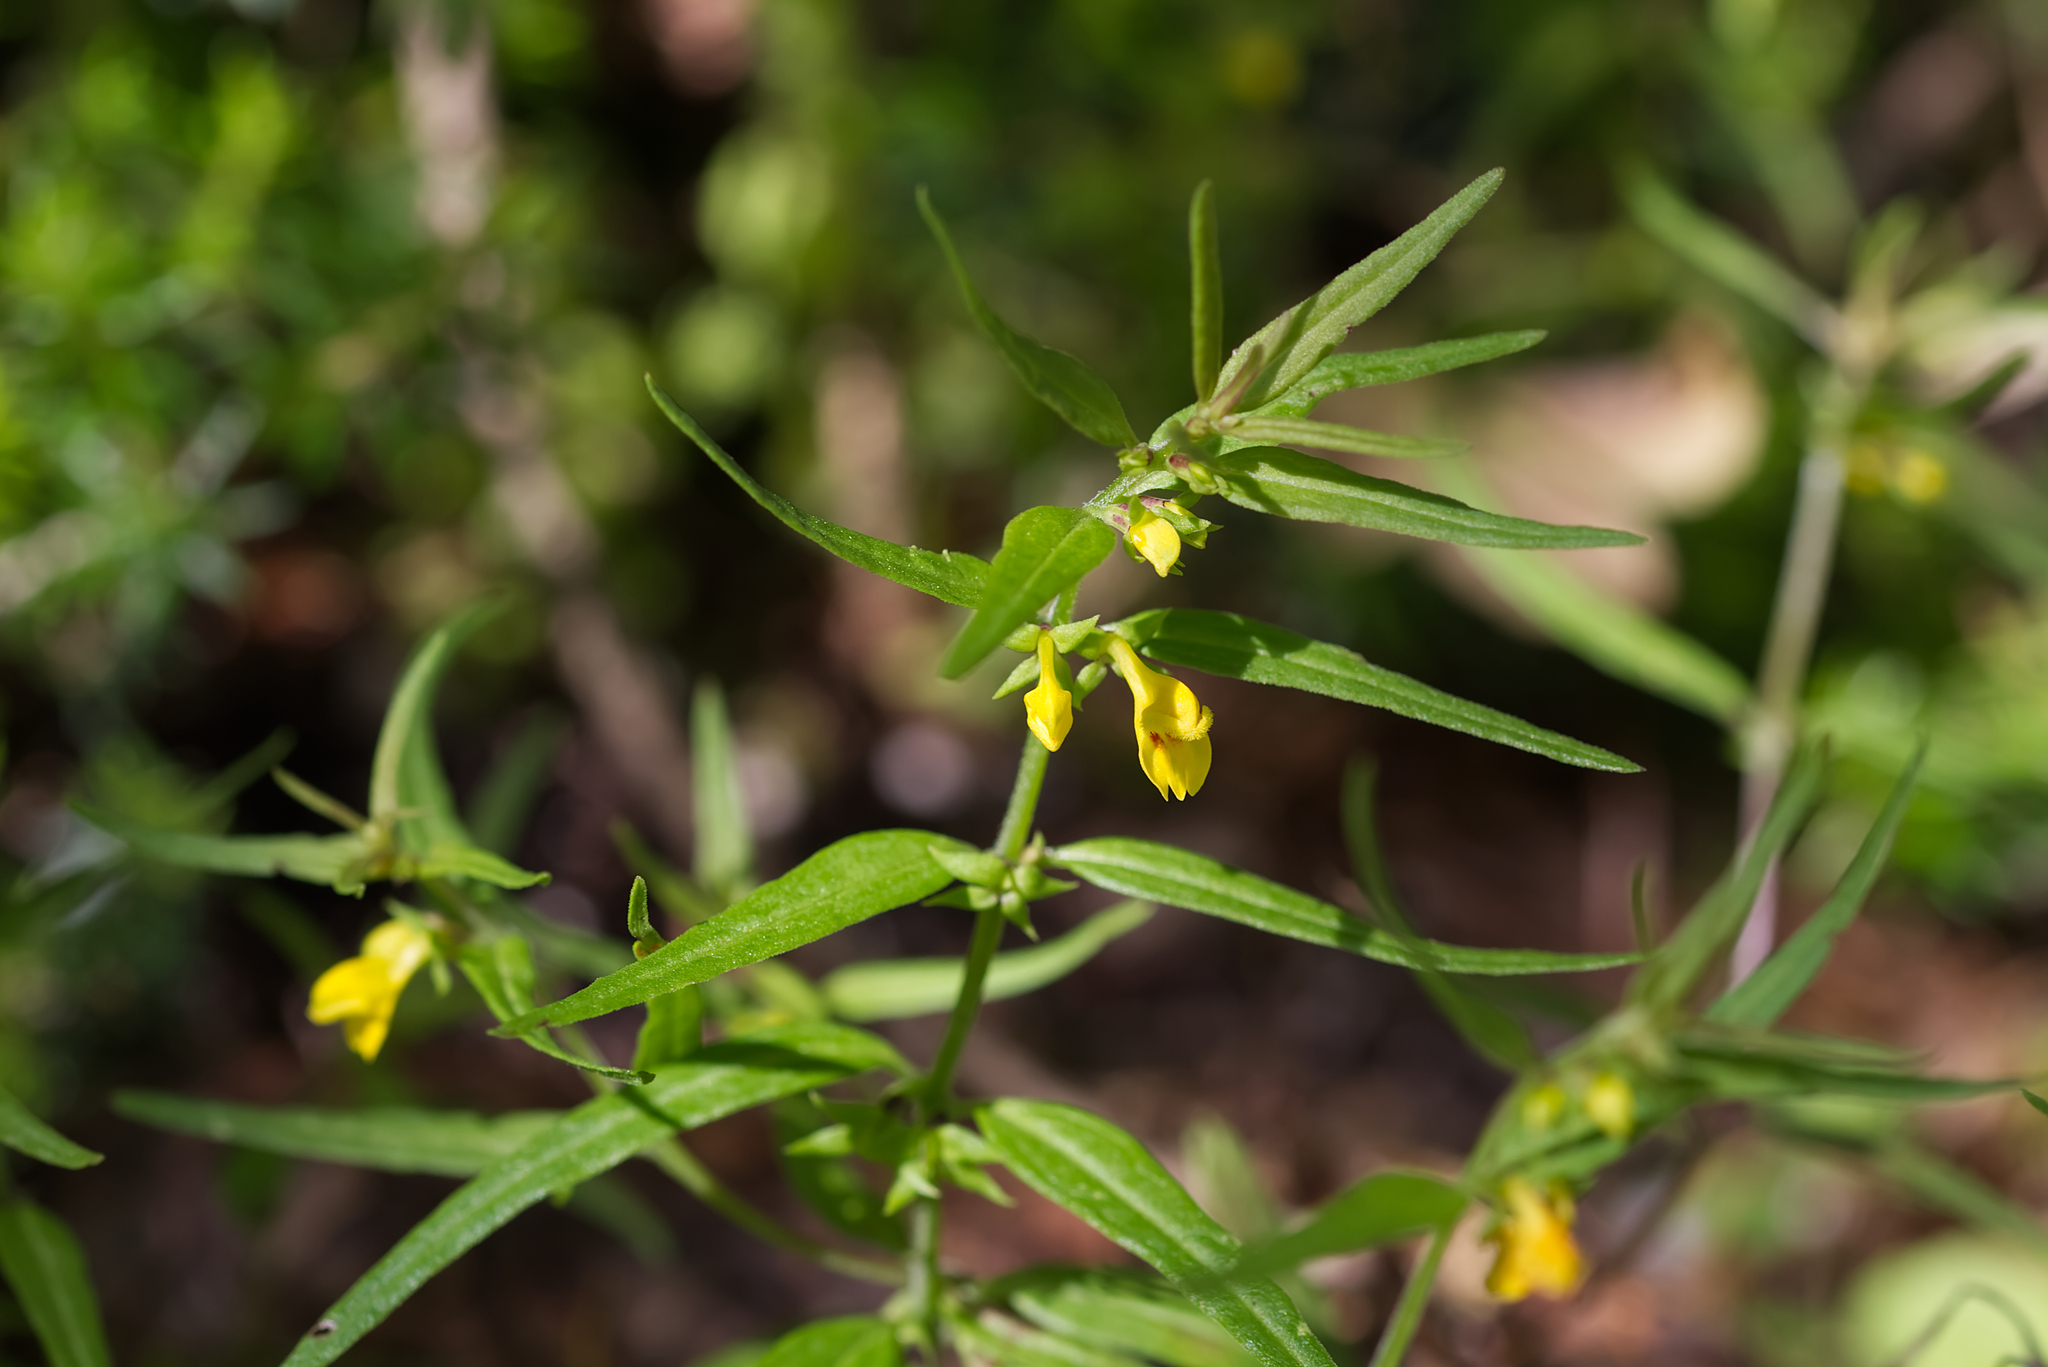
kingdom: Plantae
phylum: Tracheophyta
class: Magnoliopsida
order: Lamiales
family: Orobanchaceae
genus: Melampyrum
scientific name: Melampyrum sylvaticum
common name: Small cow-wheat
